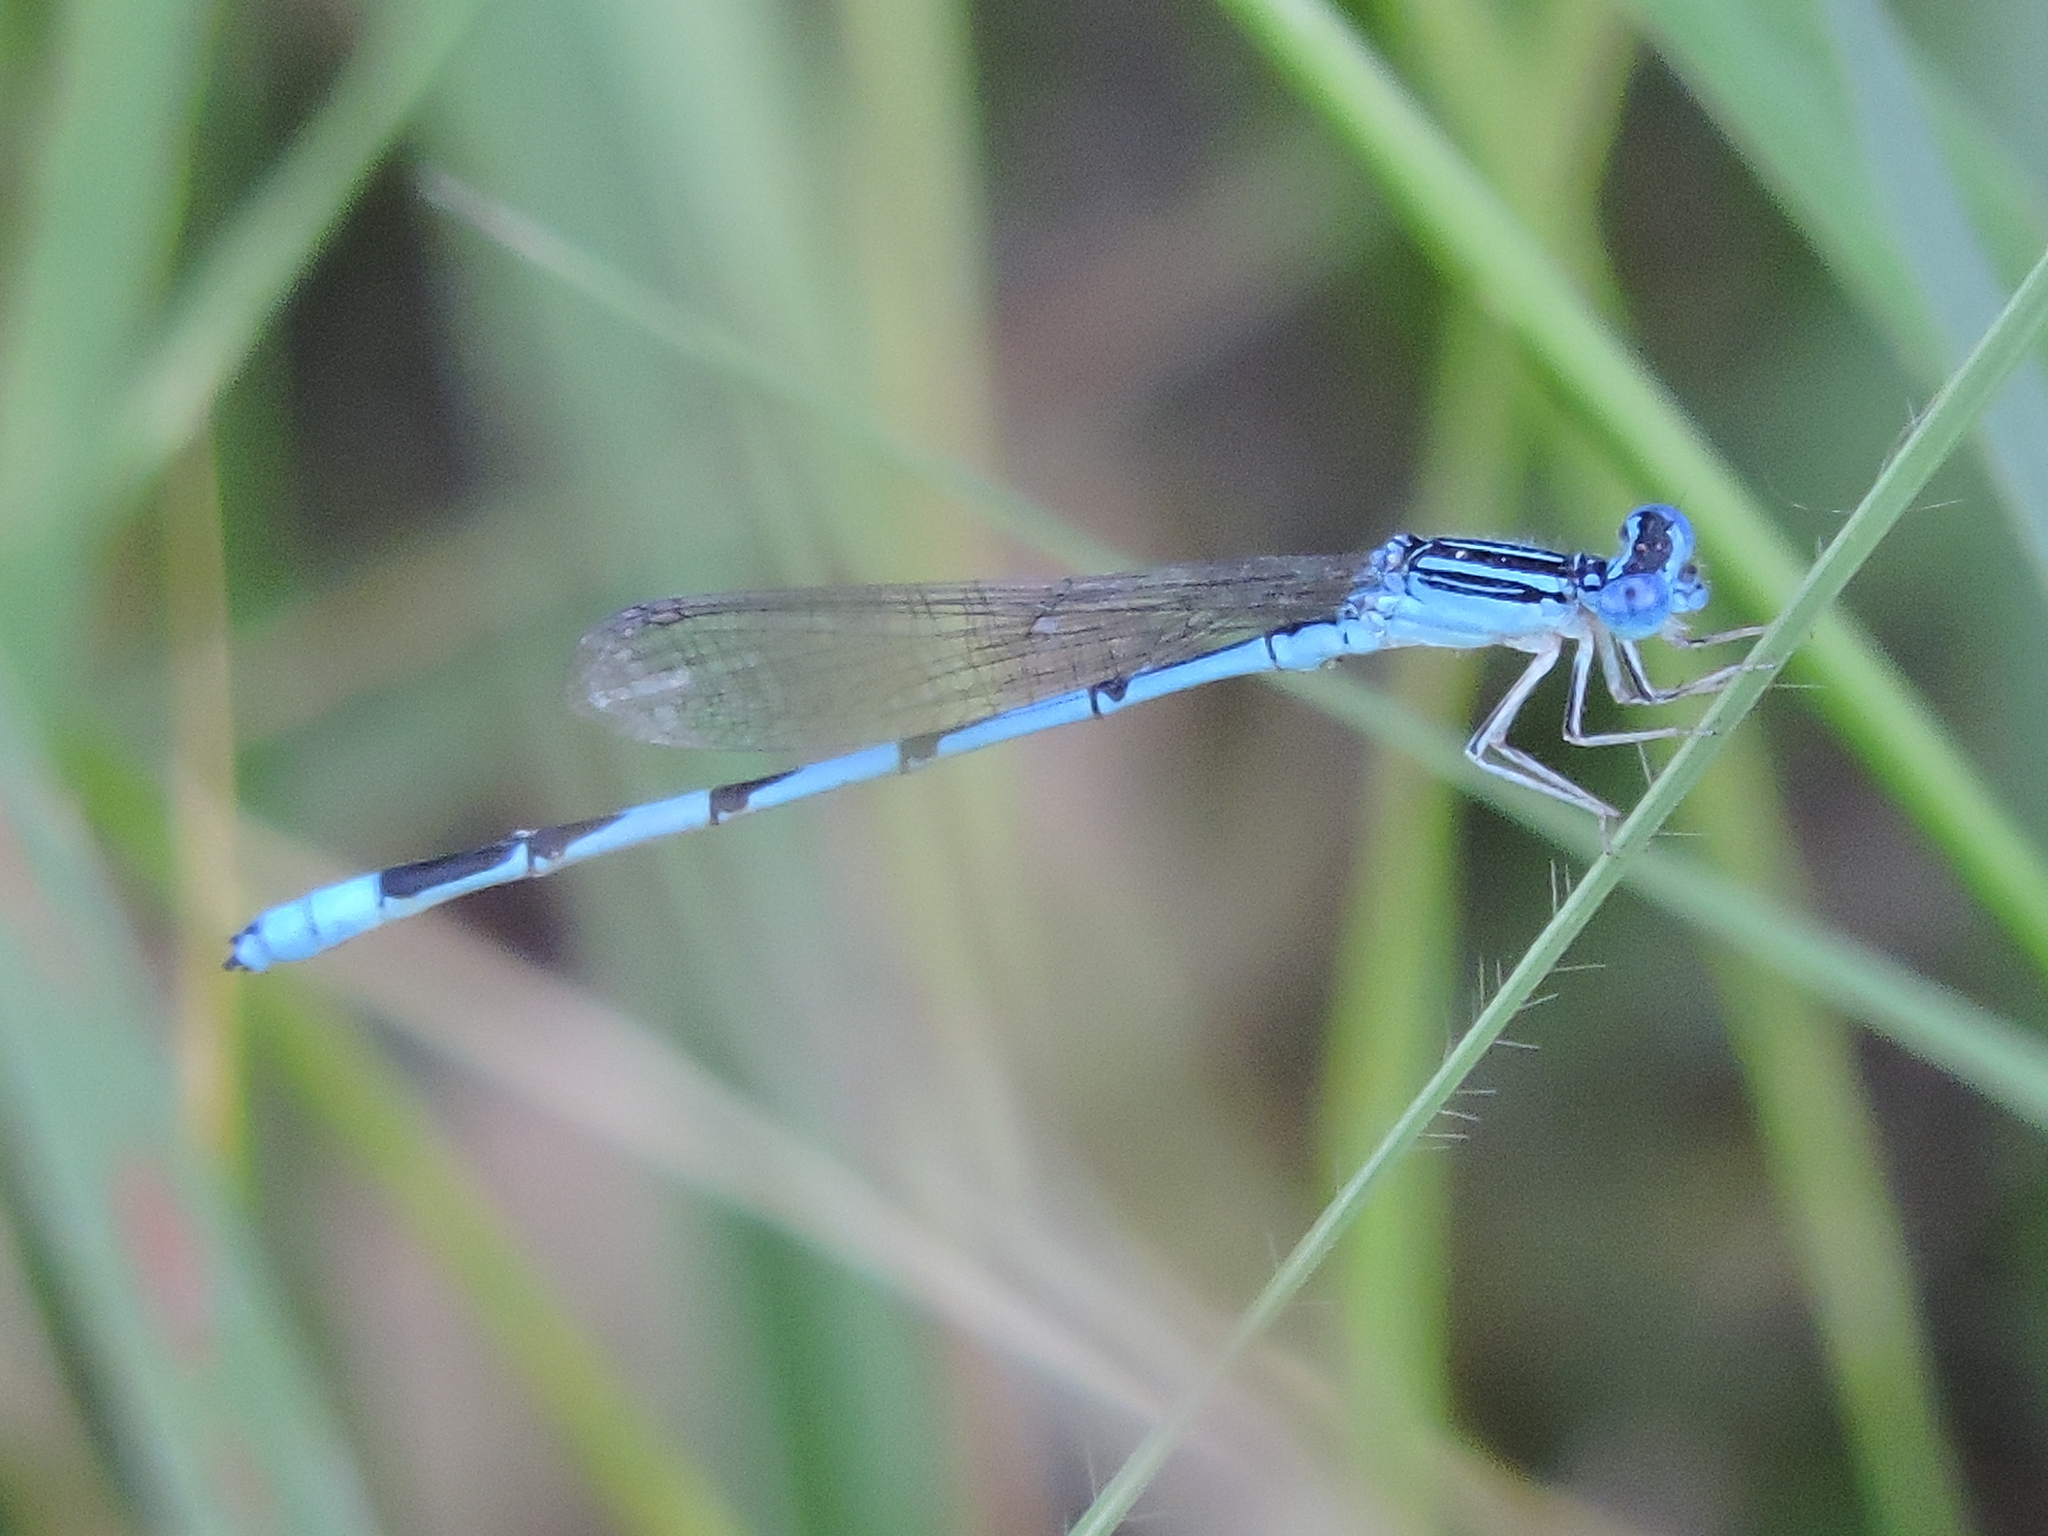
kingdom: Animalia
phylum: Arthropoda
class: Insecta
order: Odonata
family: Coenagrionidae
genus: Enallagma
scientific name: Enallagma basidens
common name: Double-striped bluet
